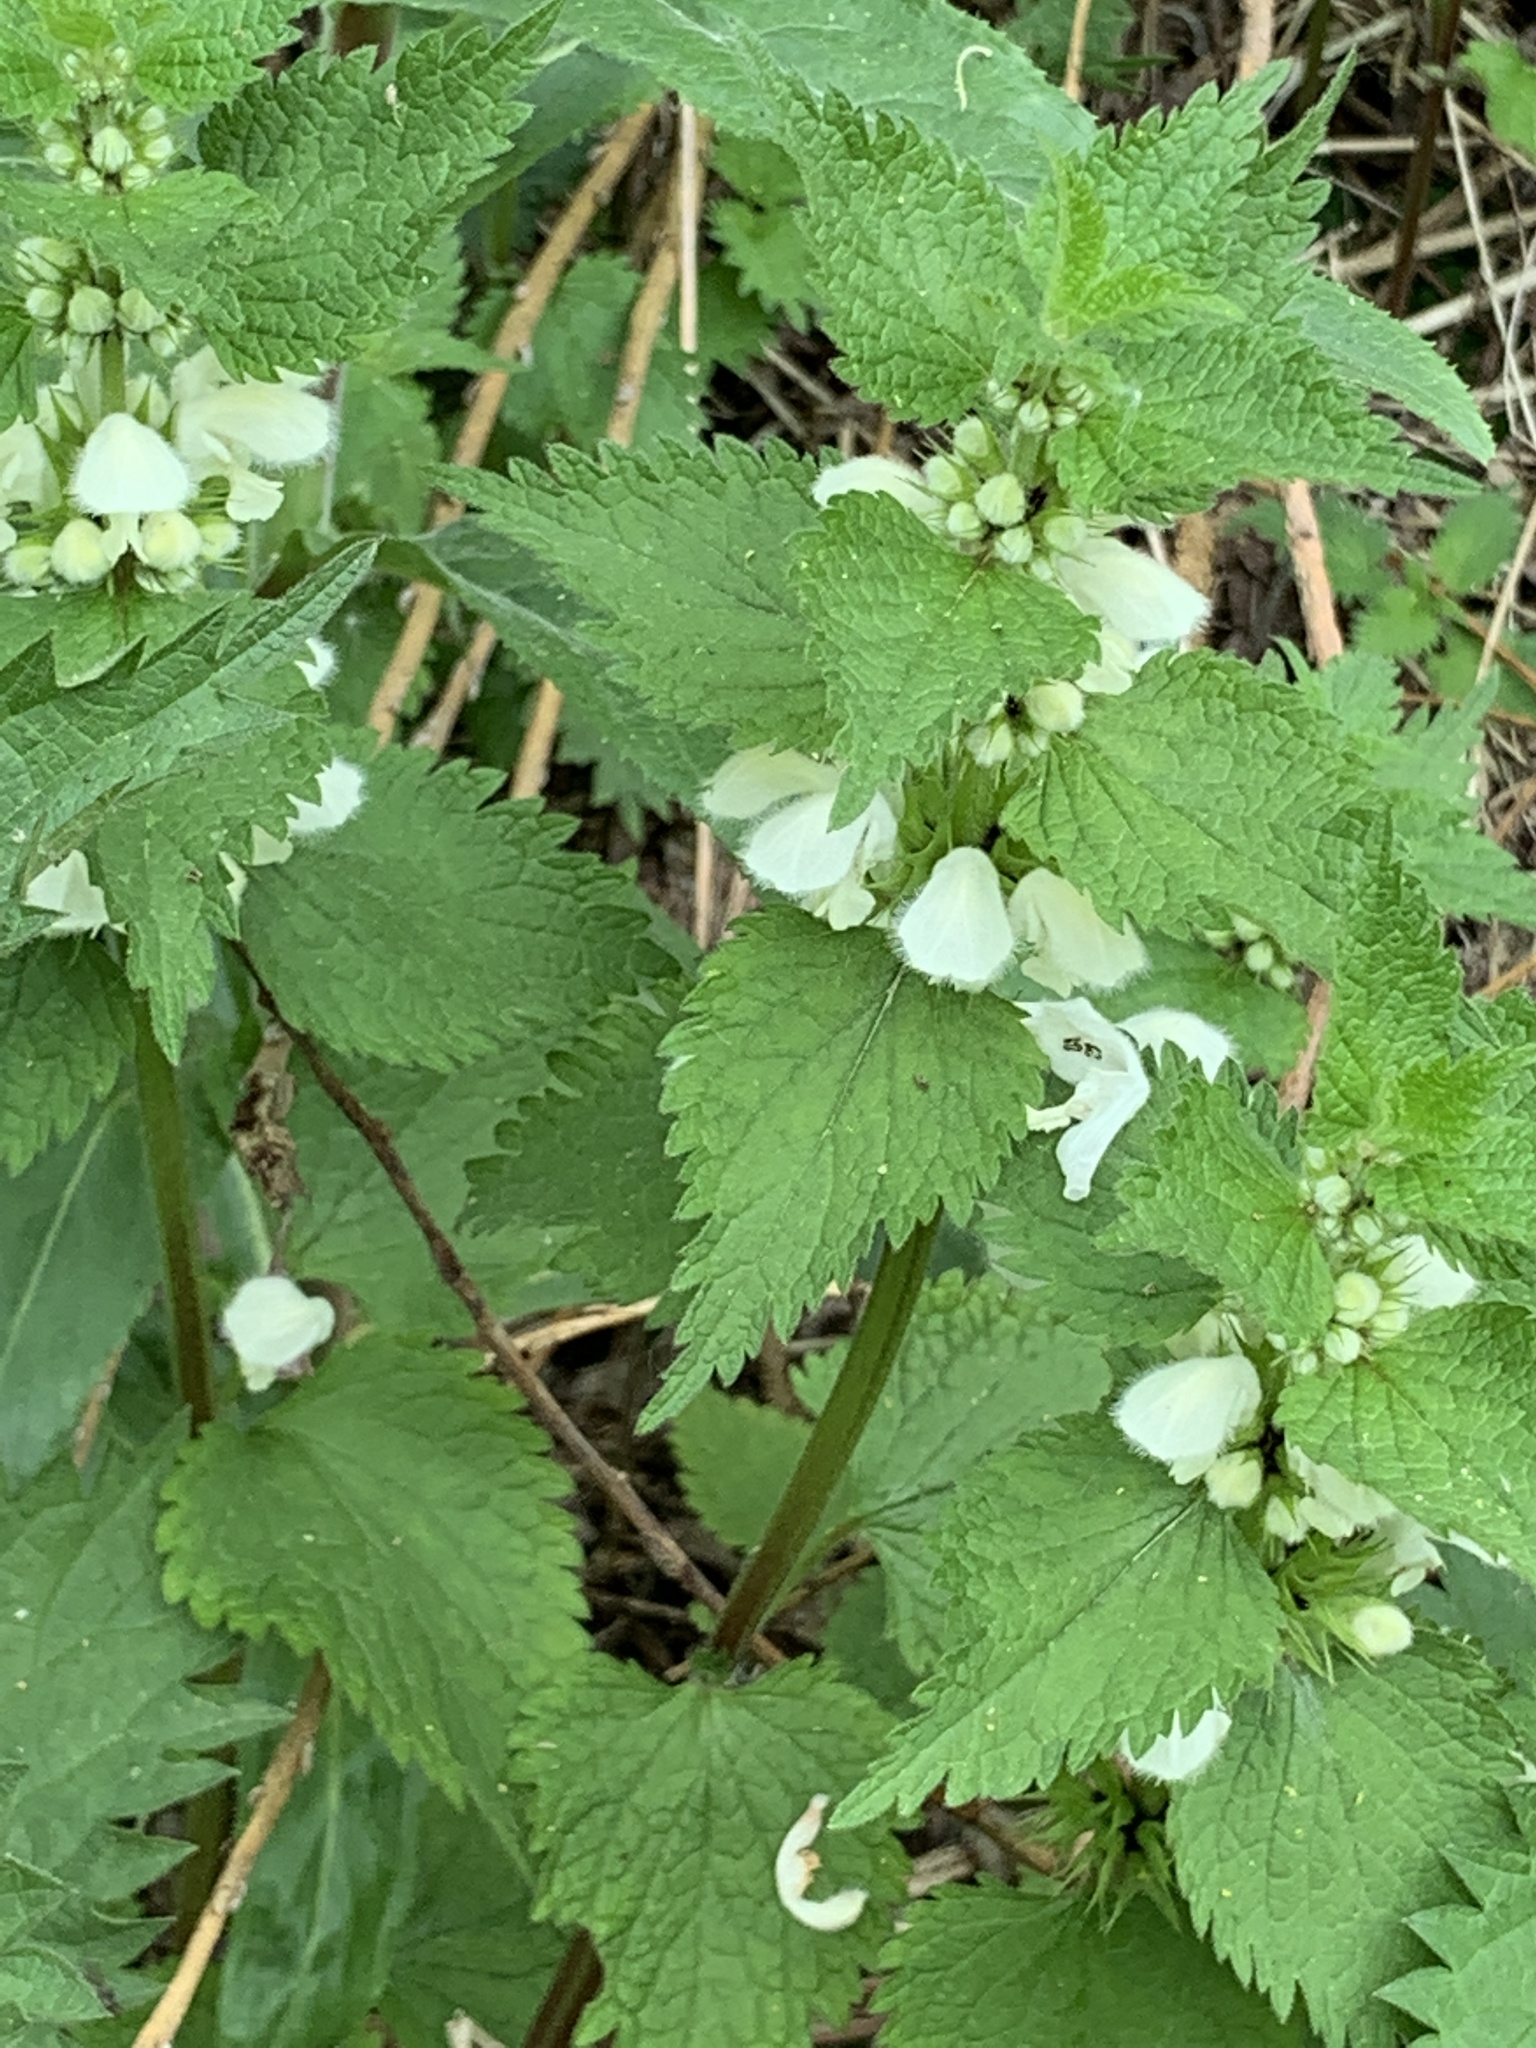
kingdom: Plantae
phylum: Tracheophyta
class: Magnoliopsida
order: Lamiales
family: Lamiaceae
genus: Lamium
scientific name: Lamium album
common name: White dead-nettle
